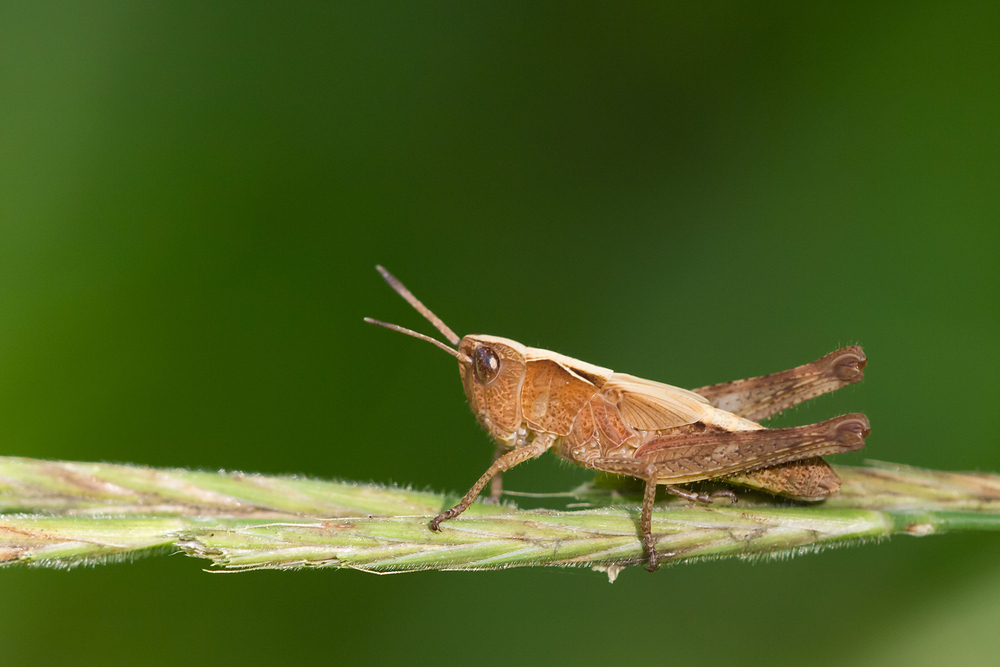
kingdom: Animalia
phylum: Arthropoda
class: Insecta
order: Orthoptera
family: Acrididae
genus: Gomphocerippus
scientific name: Gomphocerippus rufus
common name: Rufous grasshopper
